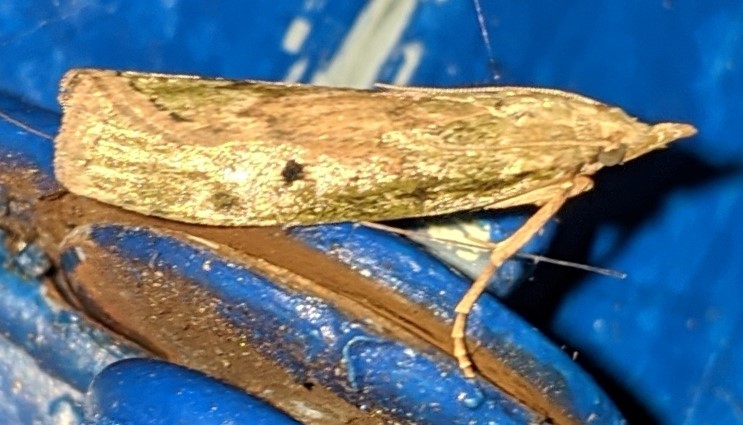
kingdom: Animalia
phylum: Arthropoda
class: Insecta
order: Lepidoptera
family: Pyralidae
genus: Aphomia
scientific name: Aphomia sociella
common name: Bee moth
